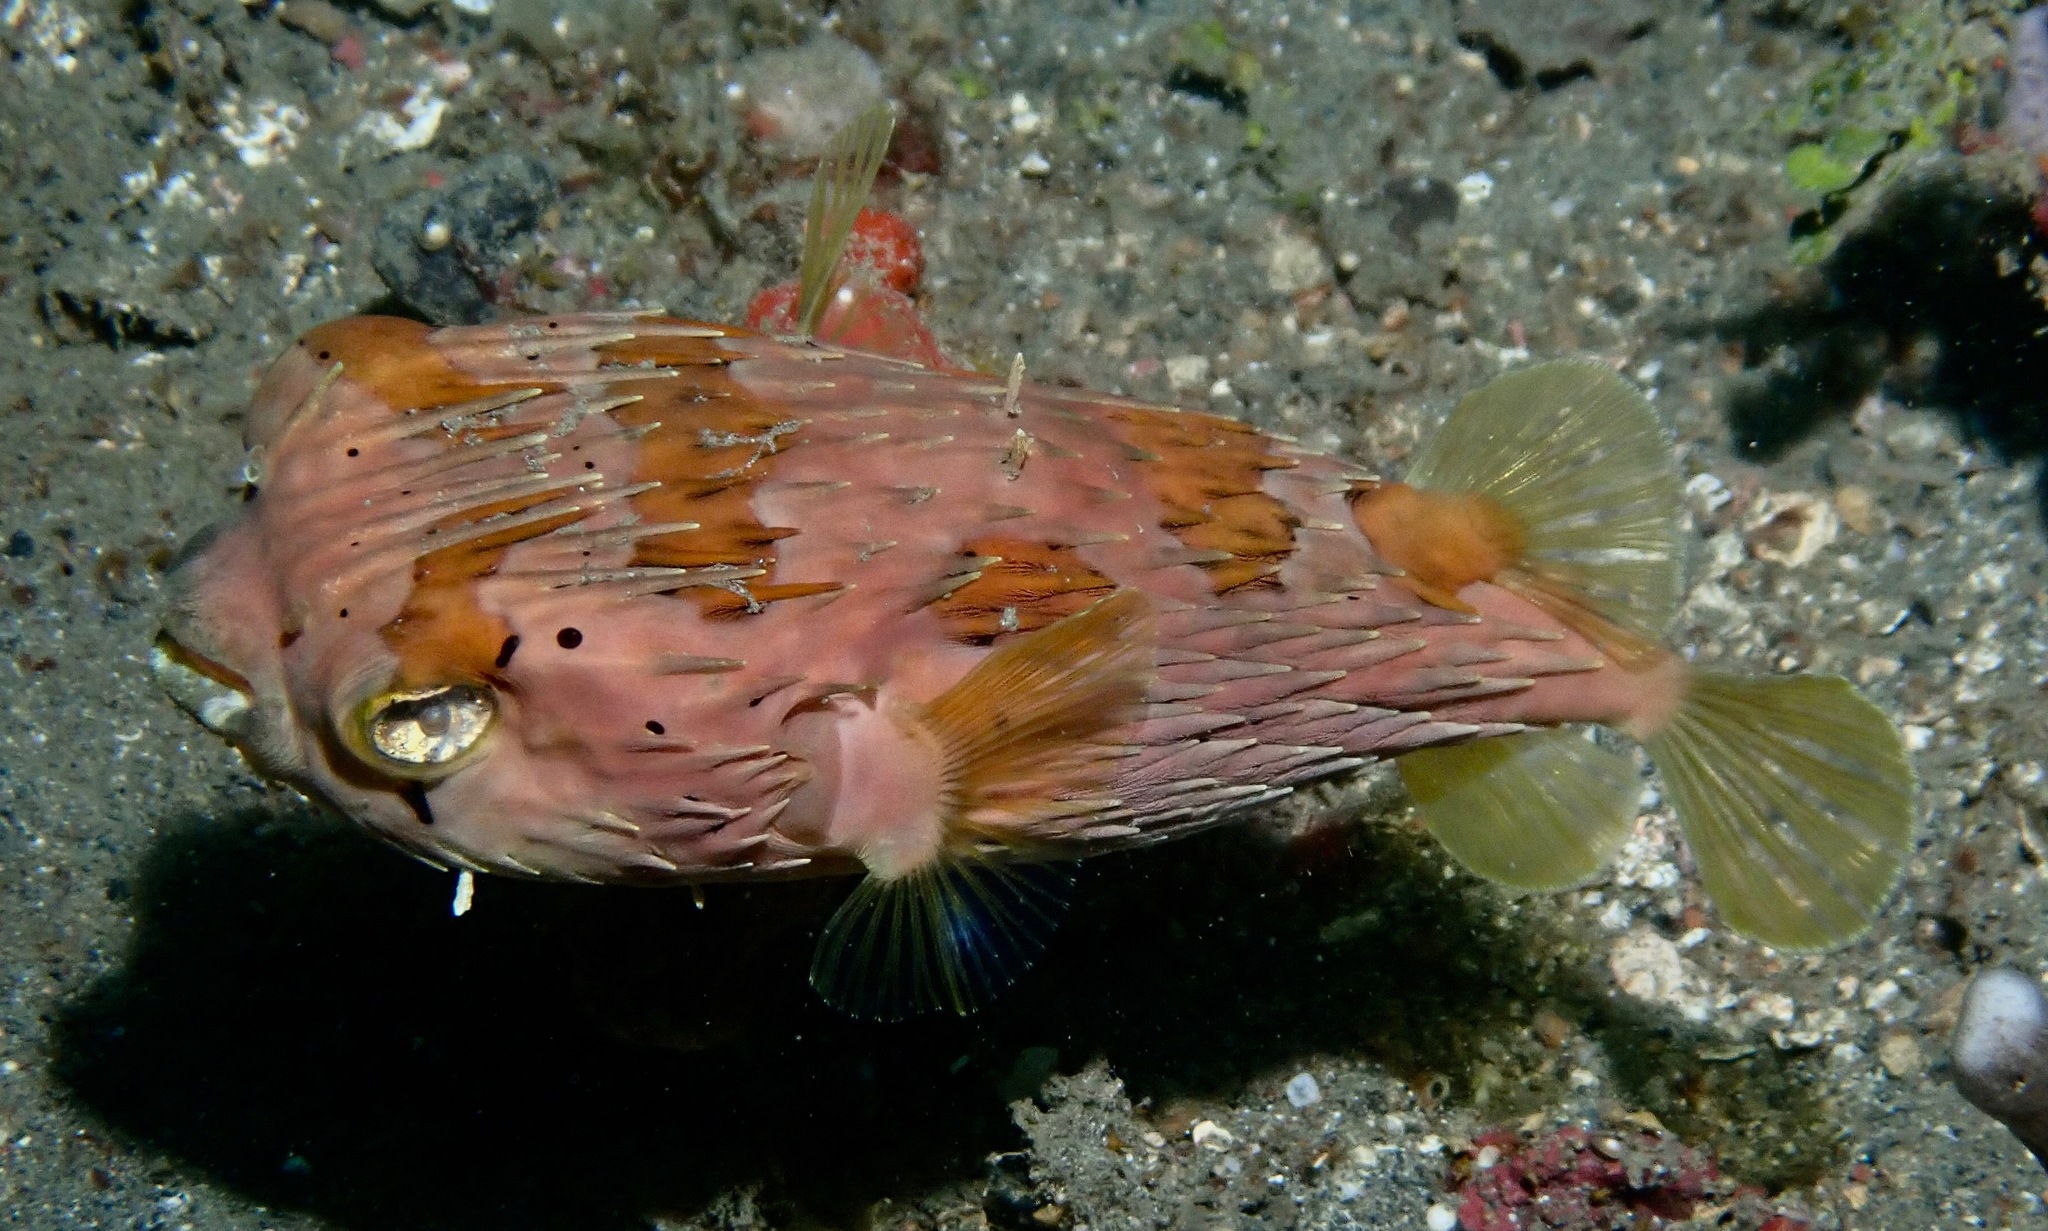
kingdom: Animalia
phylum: Chordata
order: Tetraodontiformes
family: Diodontidae
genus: Diodon
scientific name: Diodon holocanthus
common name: Balloonfish
